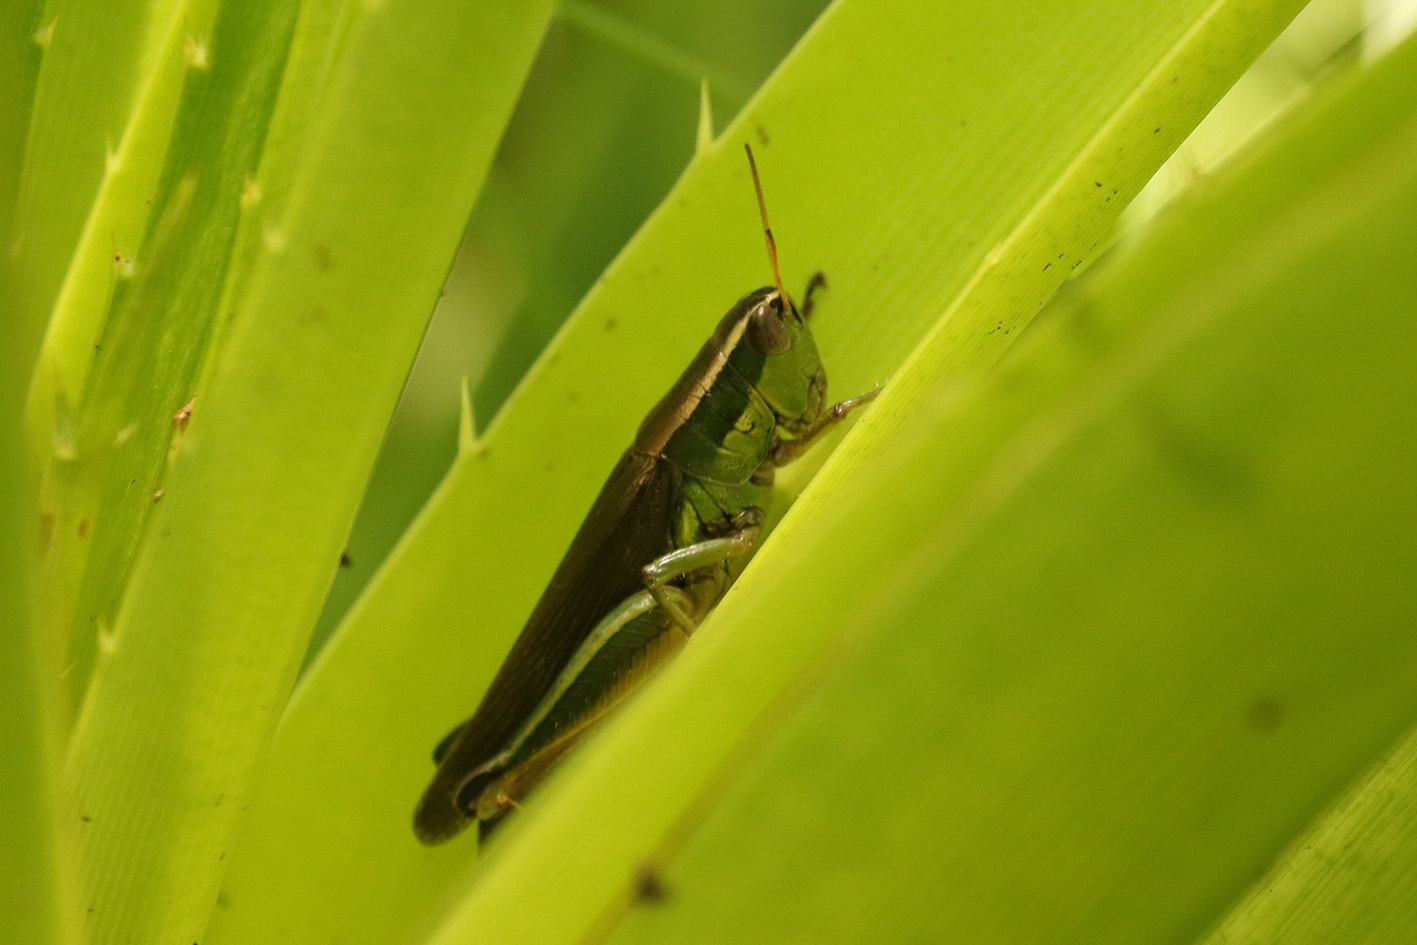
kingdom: Animalia
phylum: Arthropoda
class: Insecta
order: Orthoptera
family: Acrididae
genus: Scotussa
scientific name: Scotussa cliens
